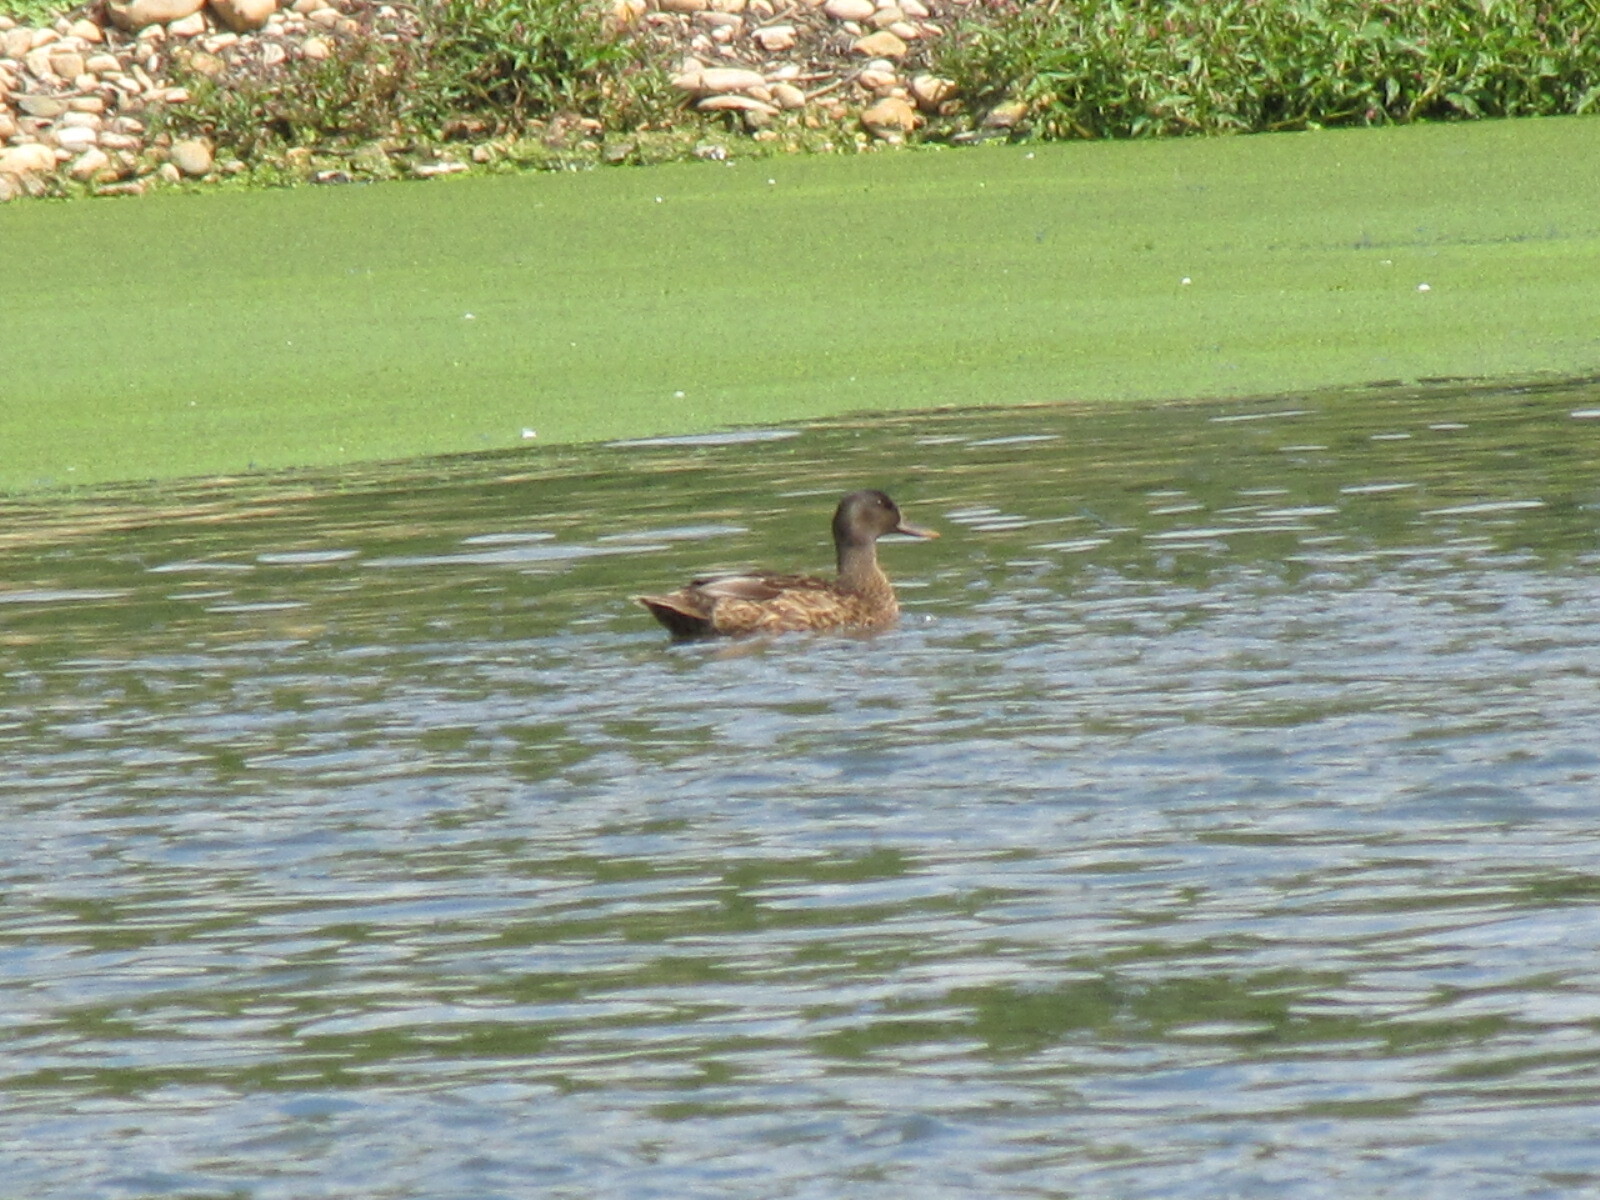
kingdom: Animalia
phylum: Chordata
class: Aves
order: Anseriformes
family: Anatidae
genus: Anas
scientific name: Anas platyrhynchos
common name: Mallard
